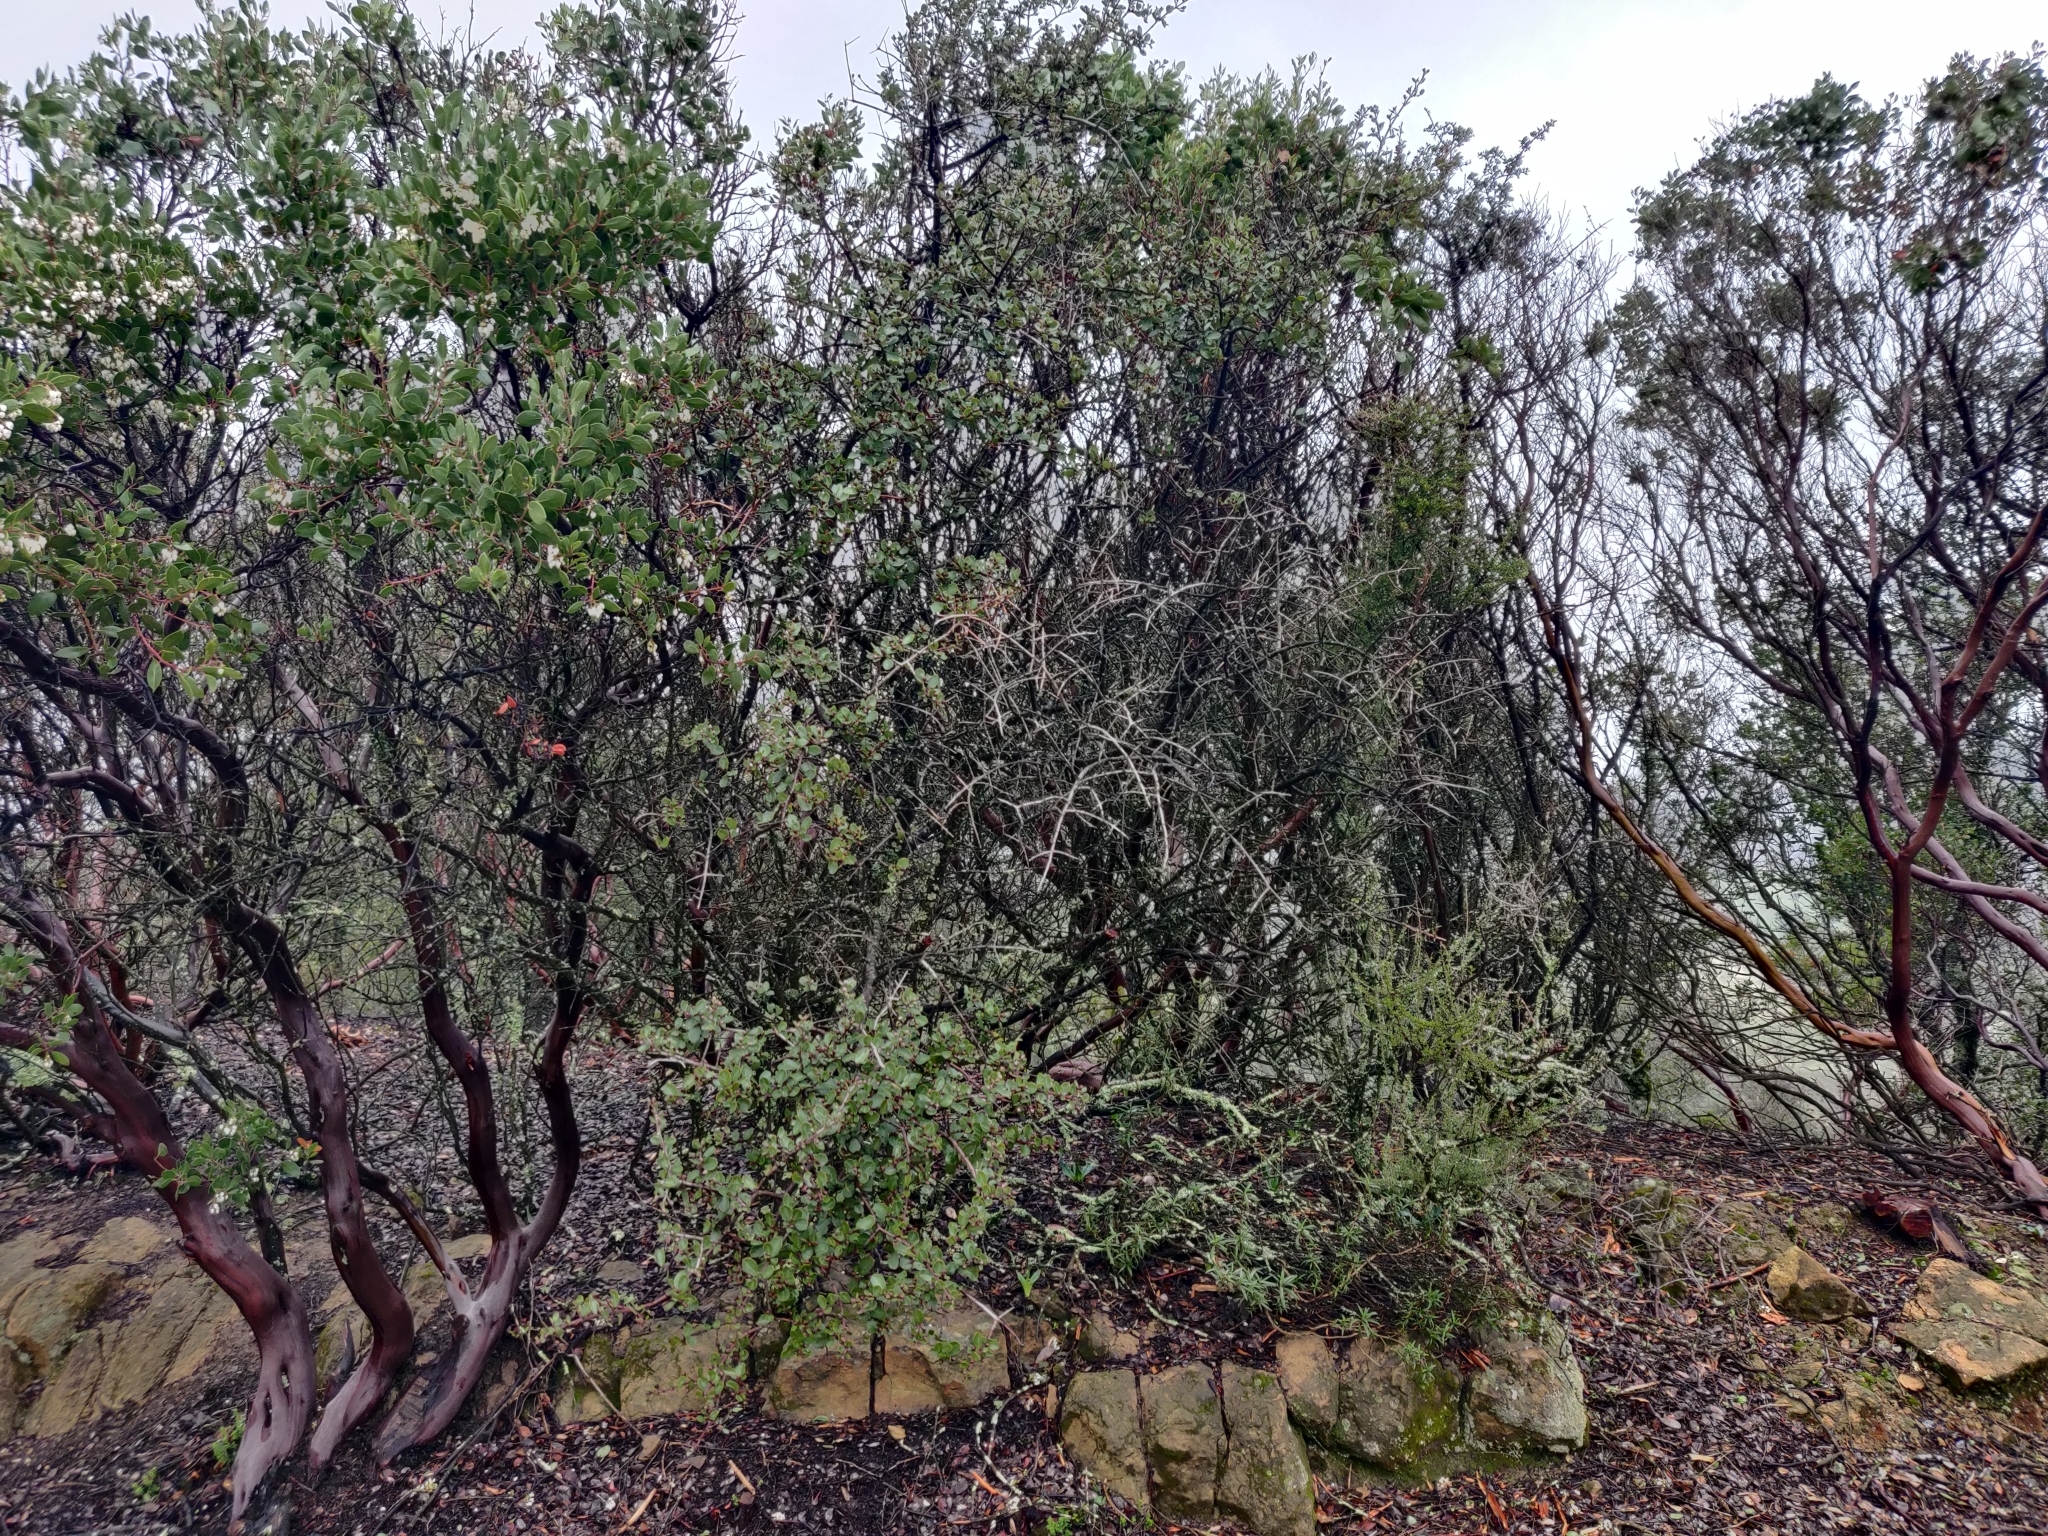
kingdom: Plantae
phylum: Tracheophyta
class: Magnoliopsida
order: Rosales
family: Rhamnaceae
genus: Ceanothus
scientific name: Ceanothus cuneatus
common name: Cuneate ceanothus
